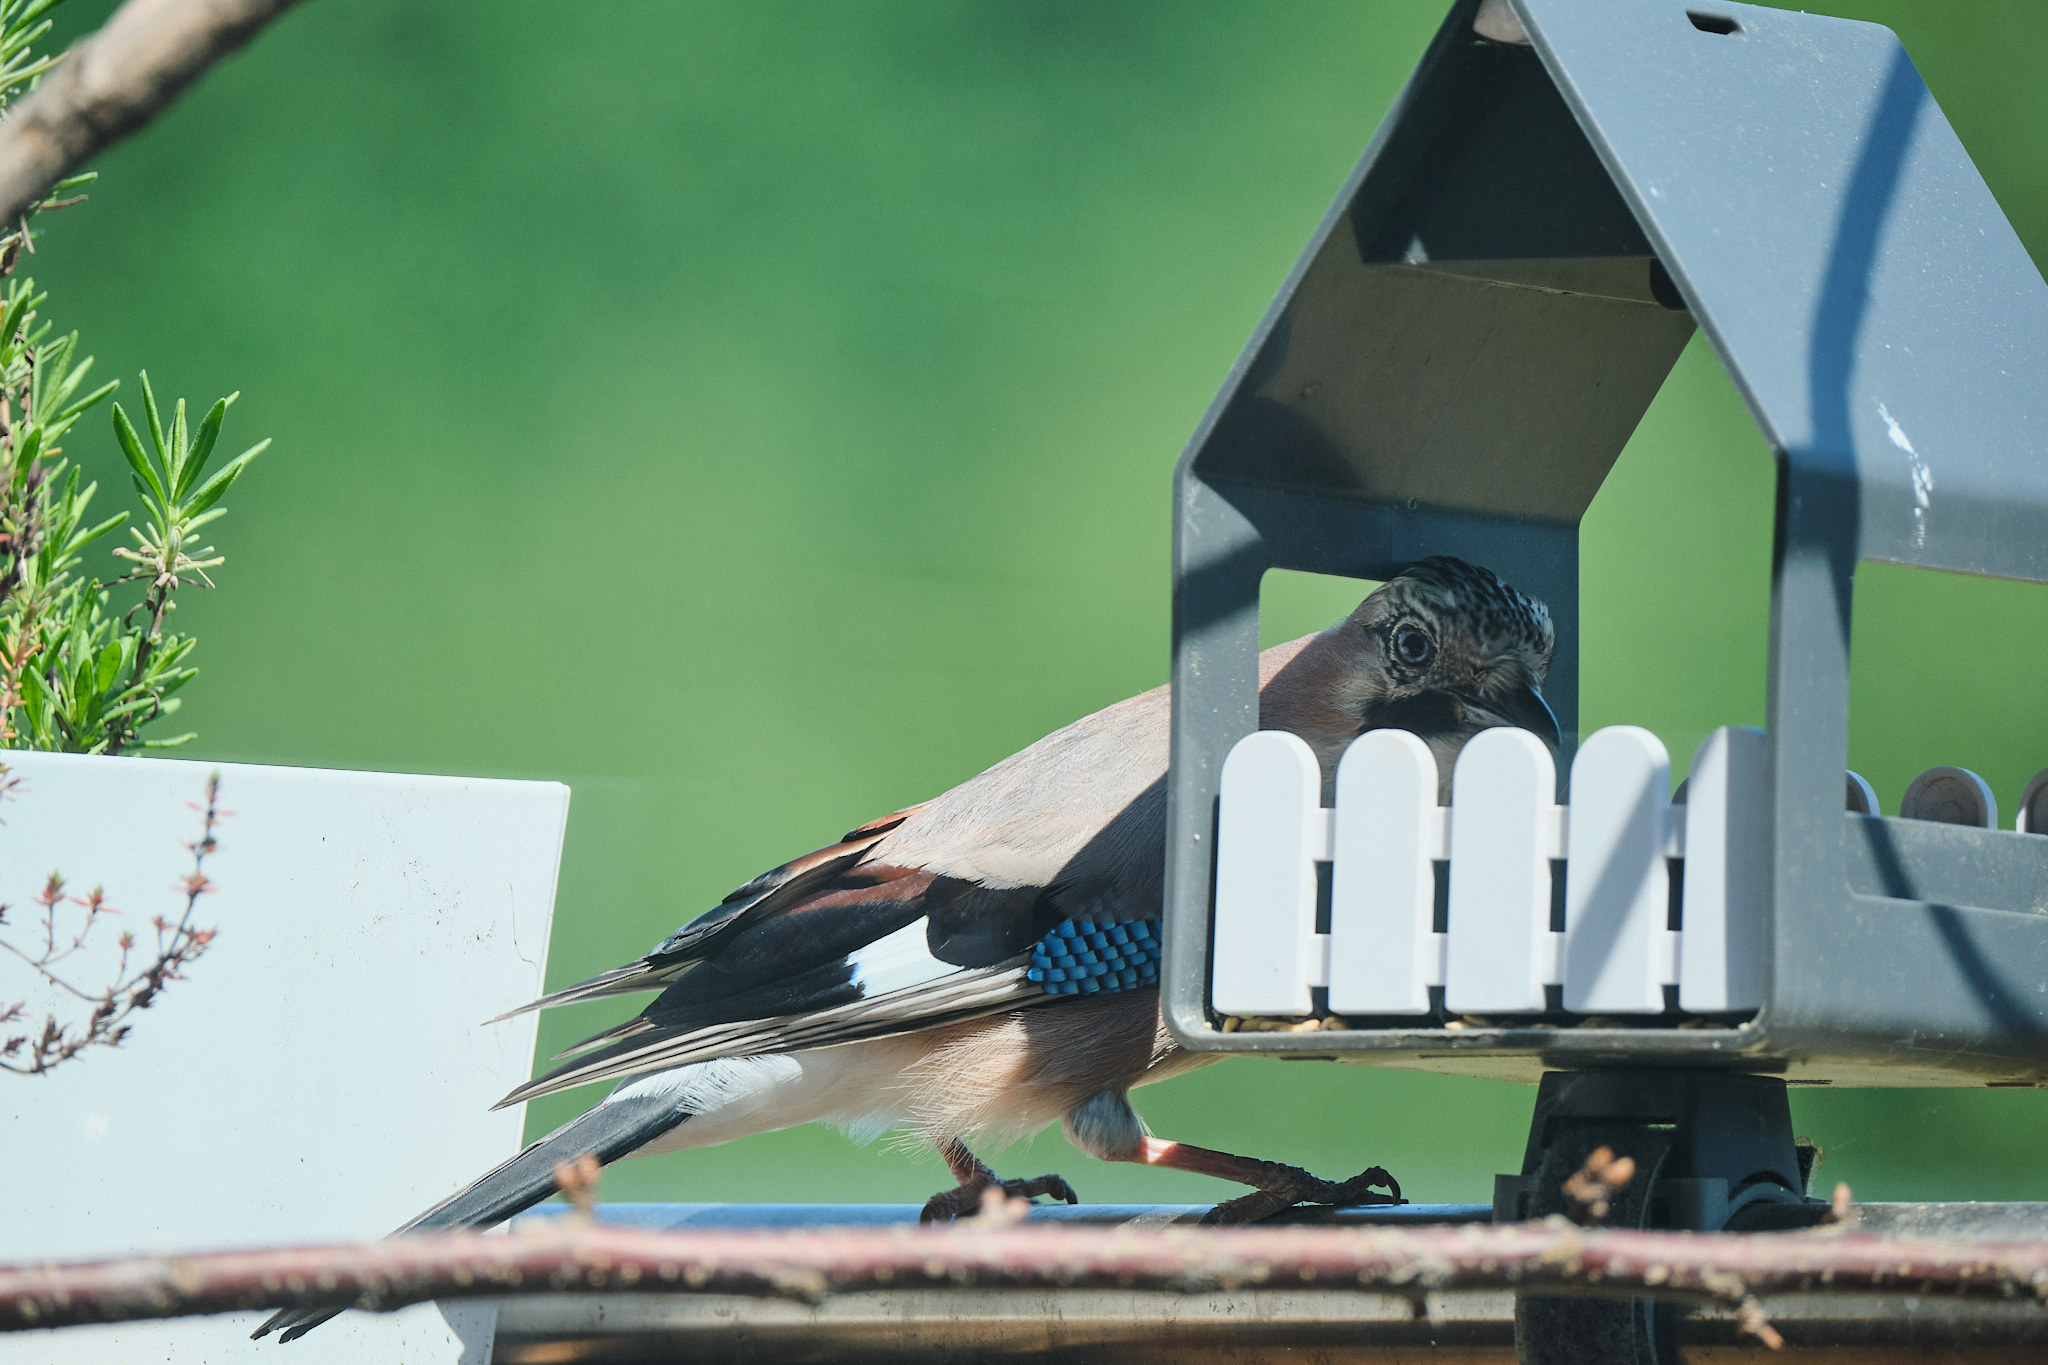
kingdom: Animalia
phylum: Chordata
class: Aves
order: Passeriformes
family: Corvidae
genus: Garrulus
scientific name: Garrulus glandarius
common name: Eurasian jay
